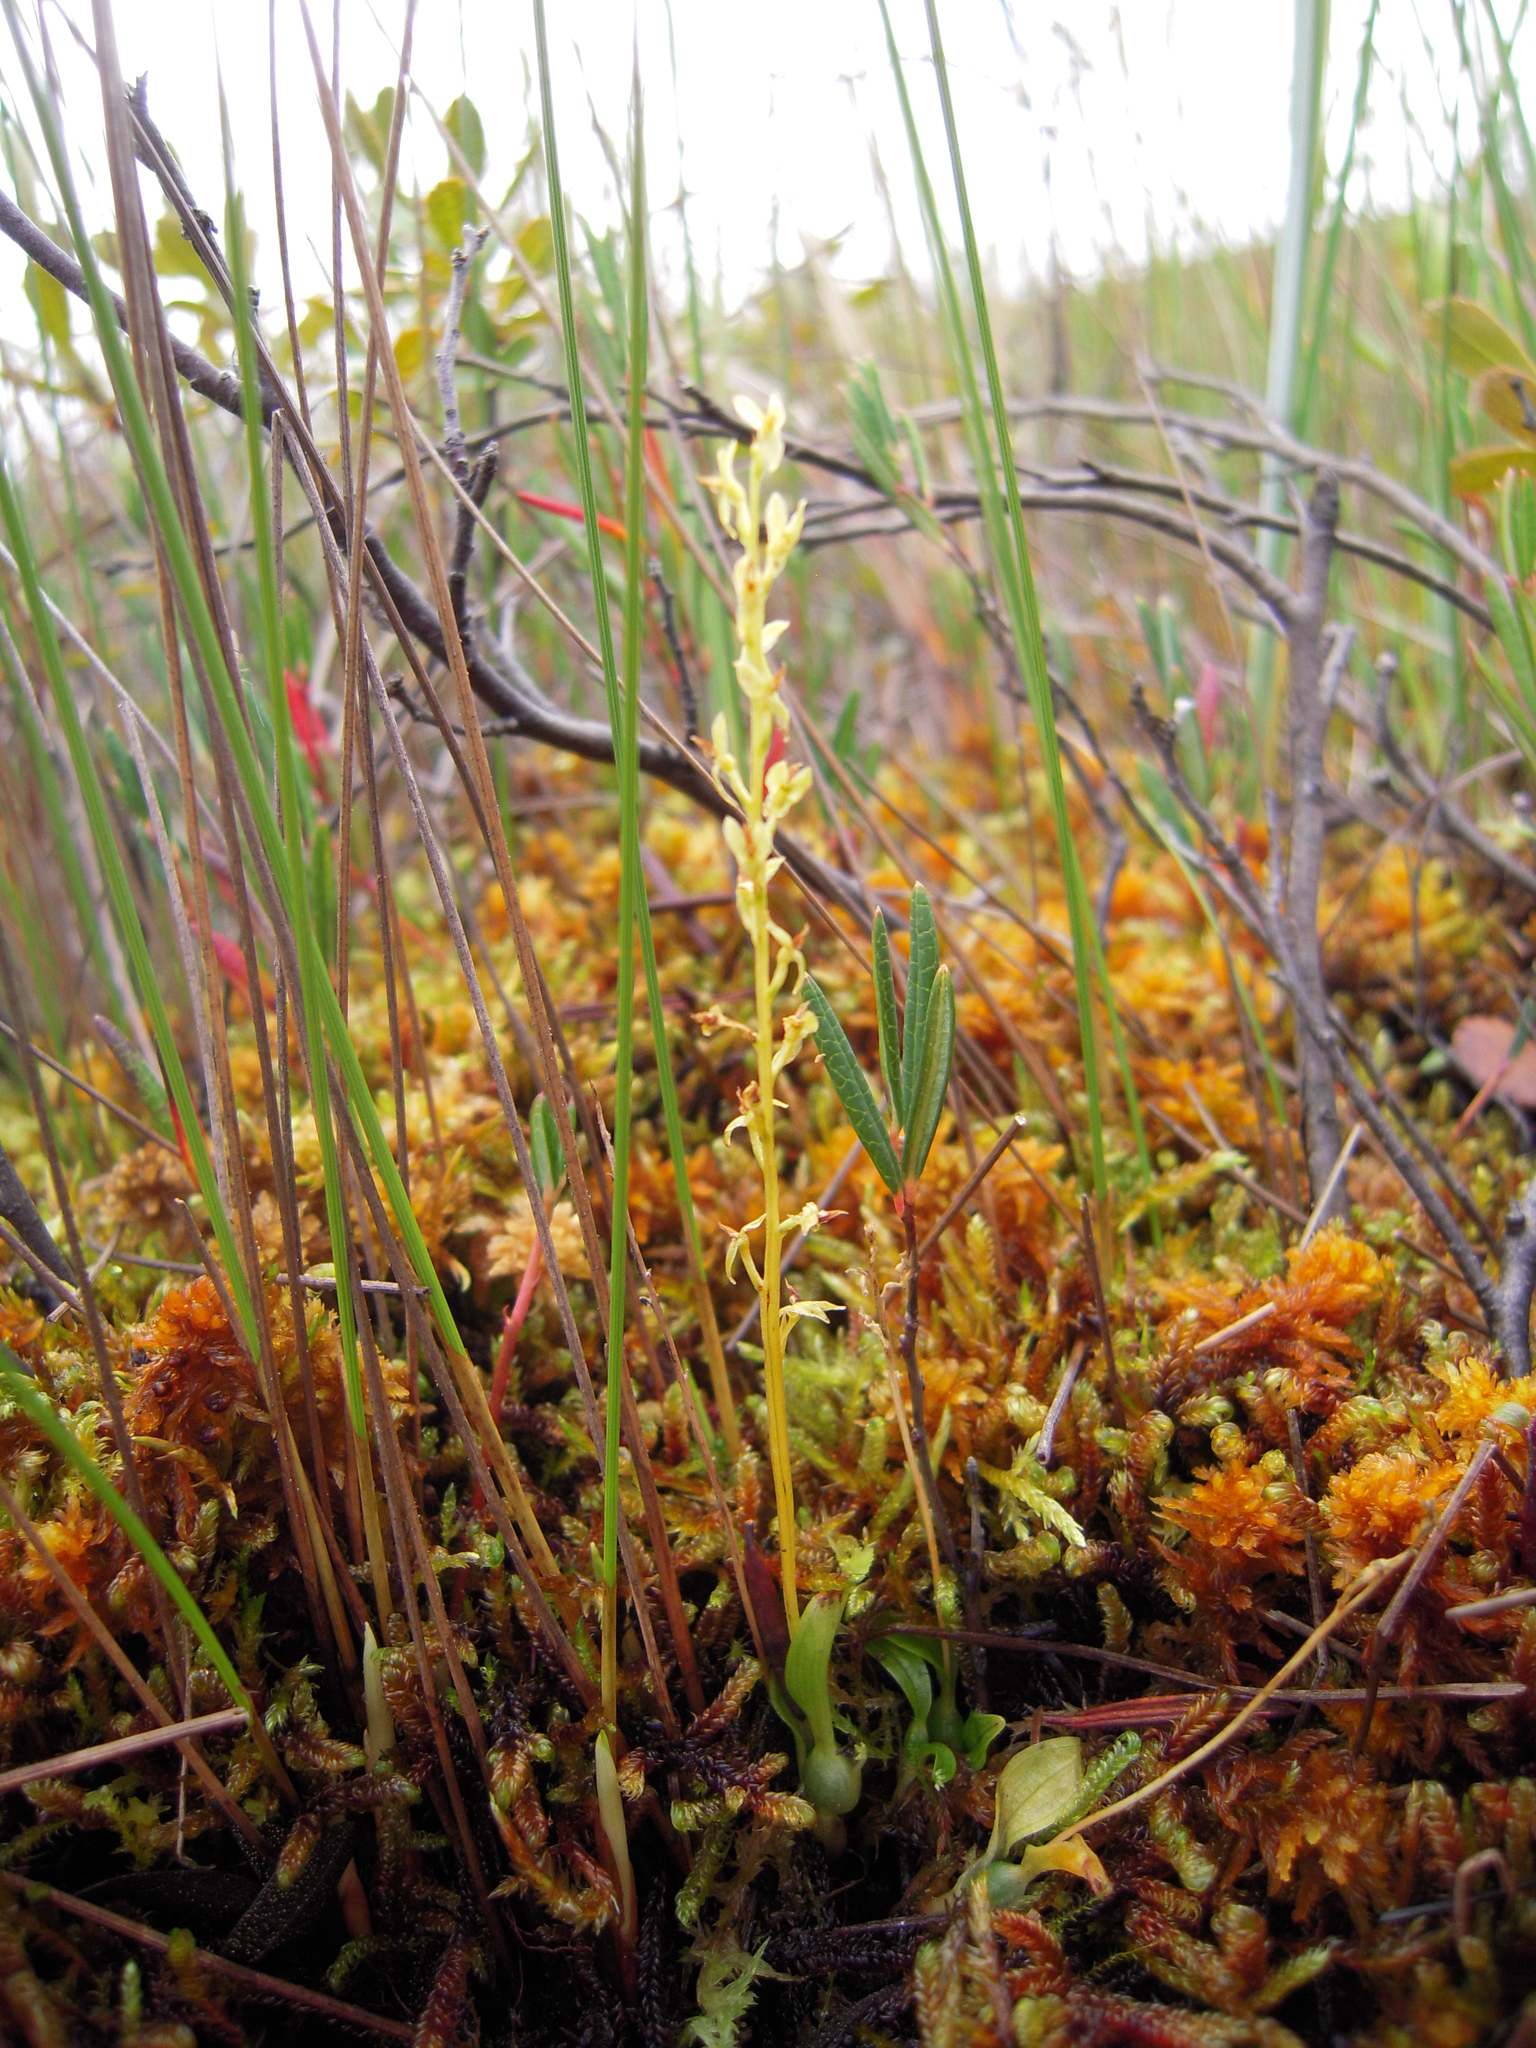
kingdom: Plantae
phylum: Tracheophyta
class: Liliopsida
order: Asparagales
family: Orchidaceae
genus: Hammarbya
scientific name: Hammarbya paludosa
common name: Bog orchid
